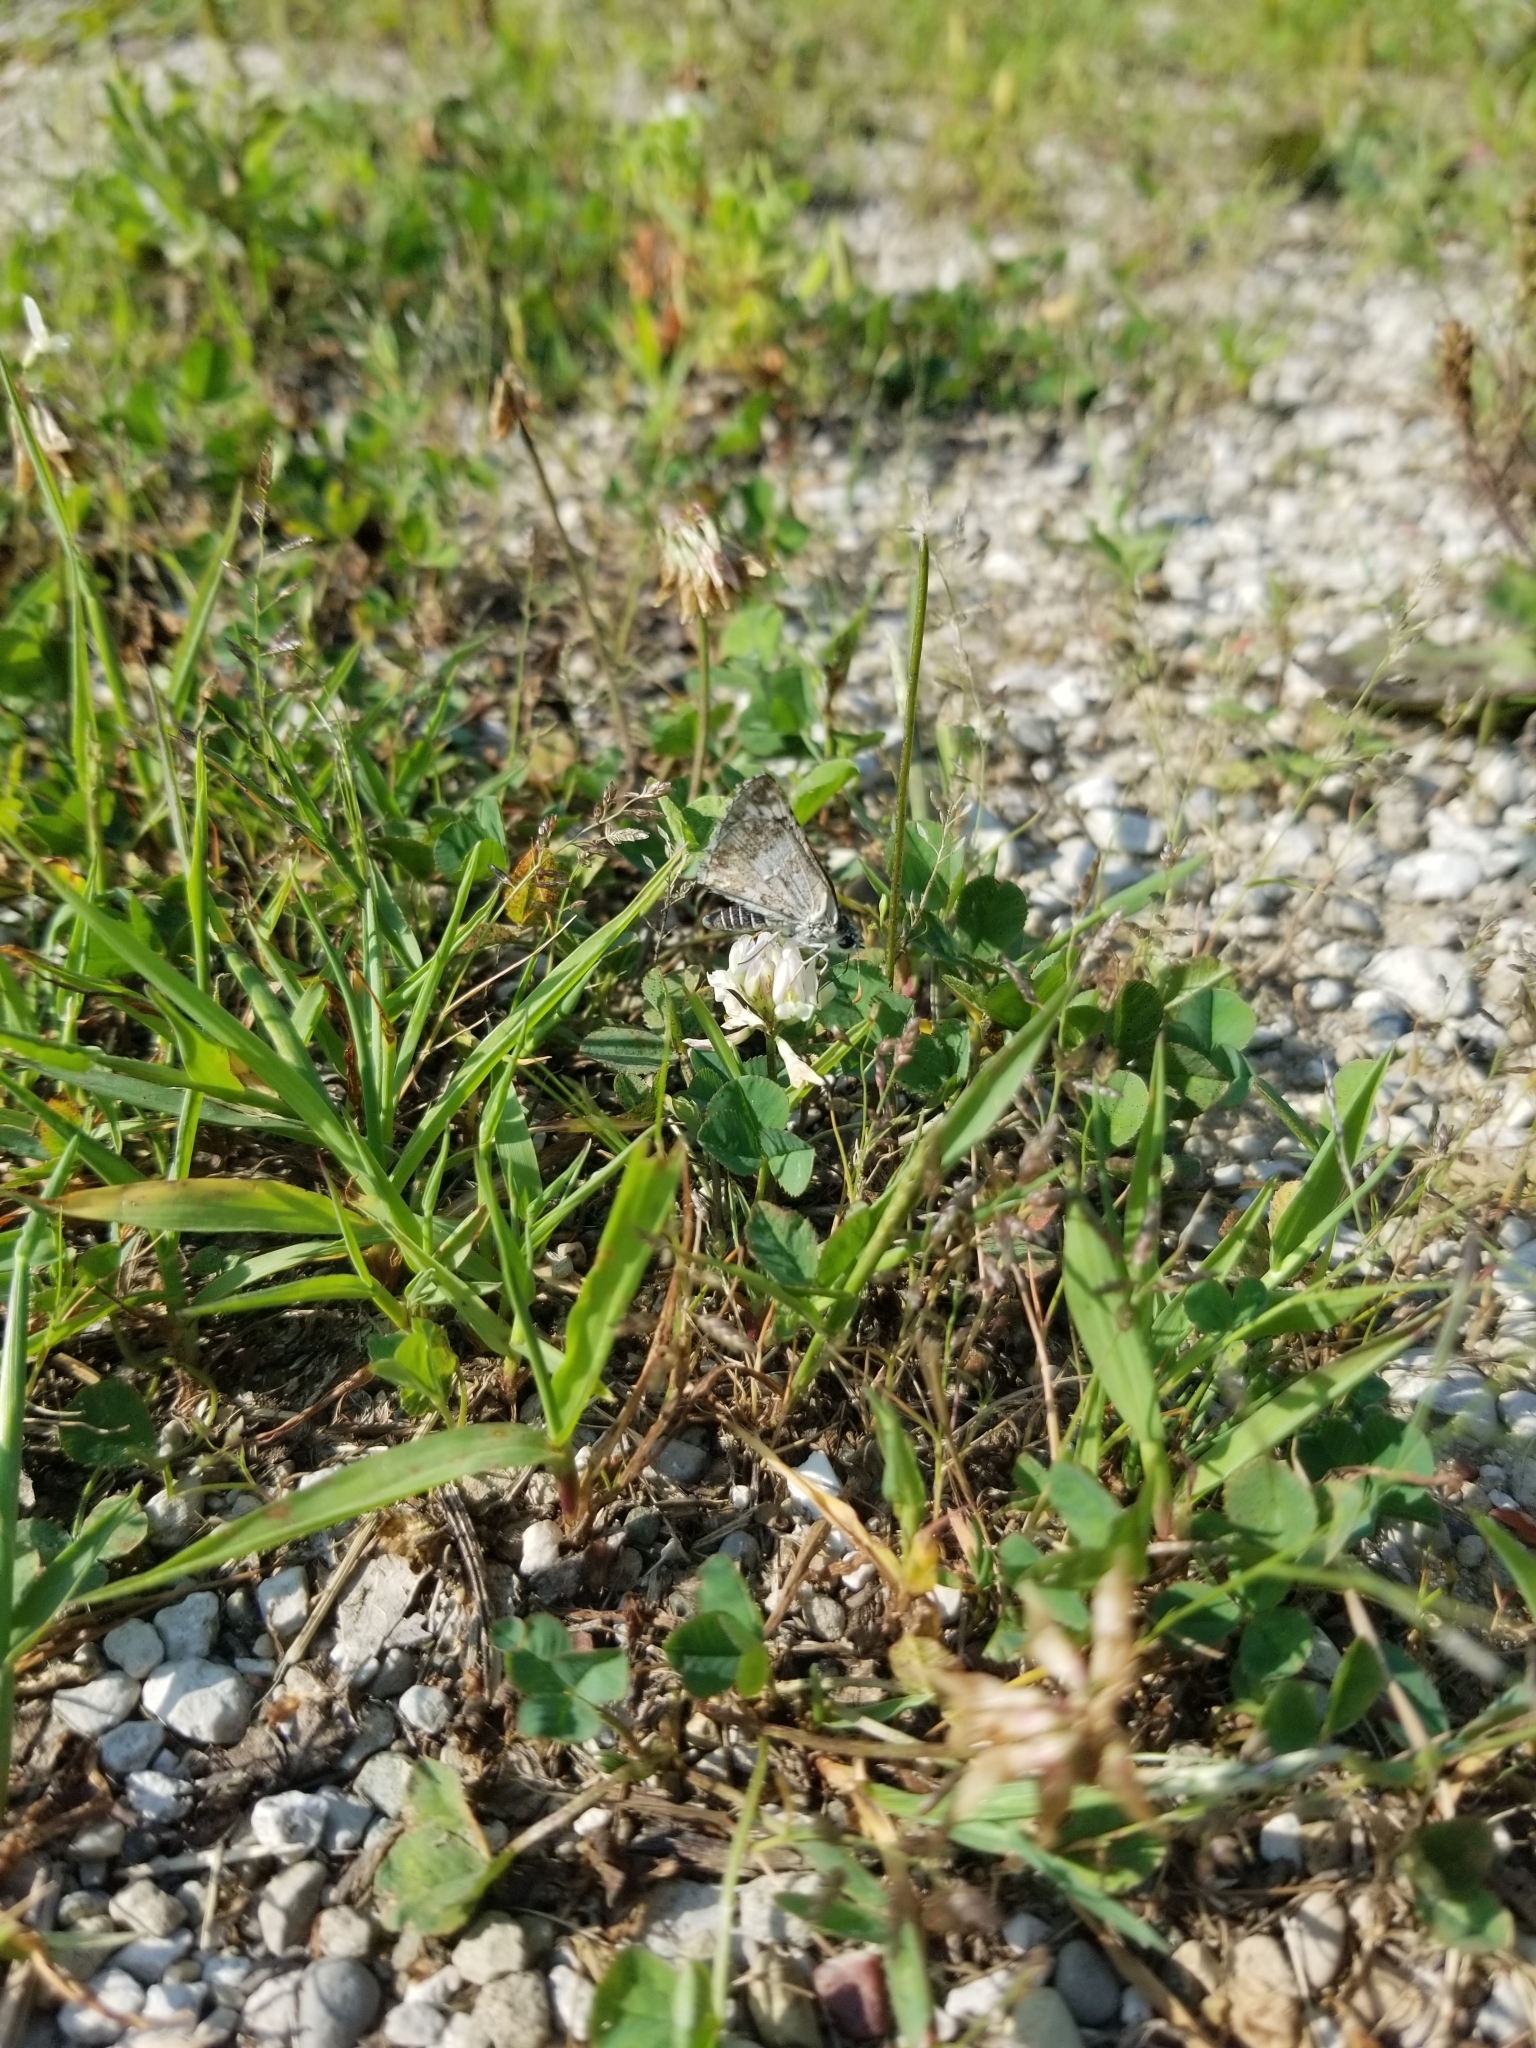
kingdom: Animalia
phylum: Arthropoda
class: Insecta
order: Lepidoptera
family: Hesperiidae
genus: Burnsius
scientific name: Burnsius communis
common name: Common checkered-skipper
